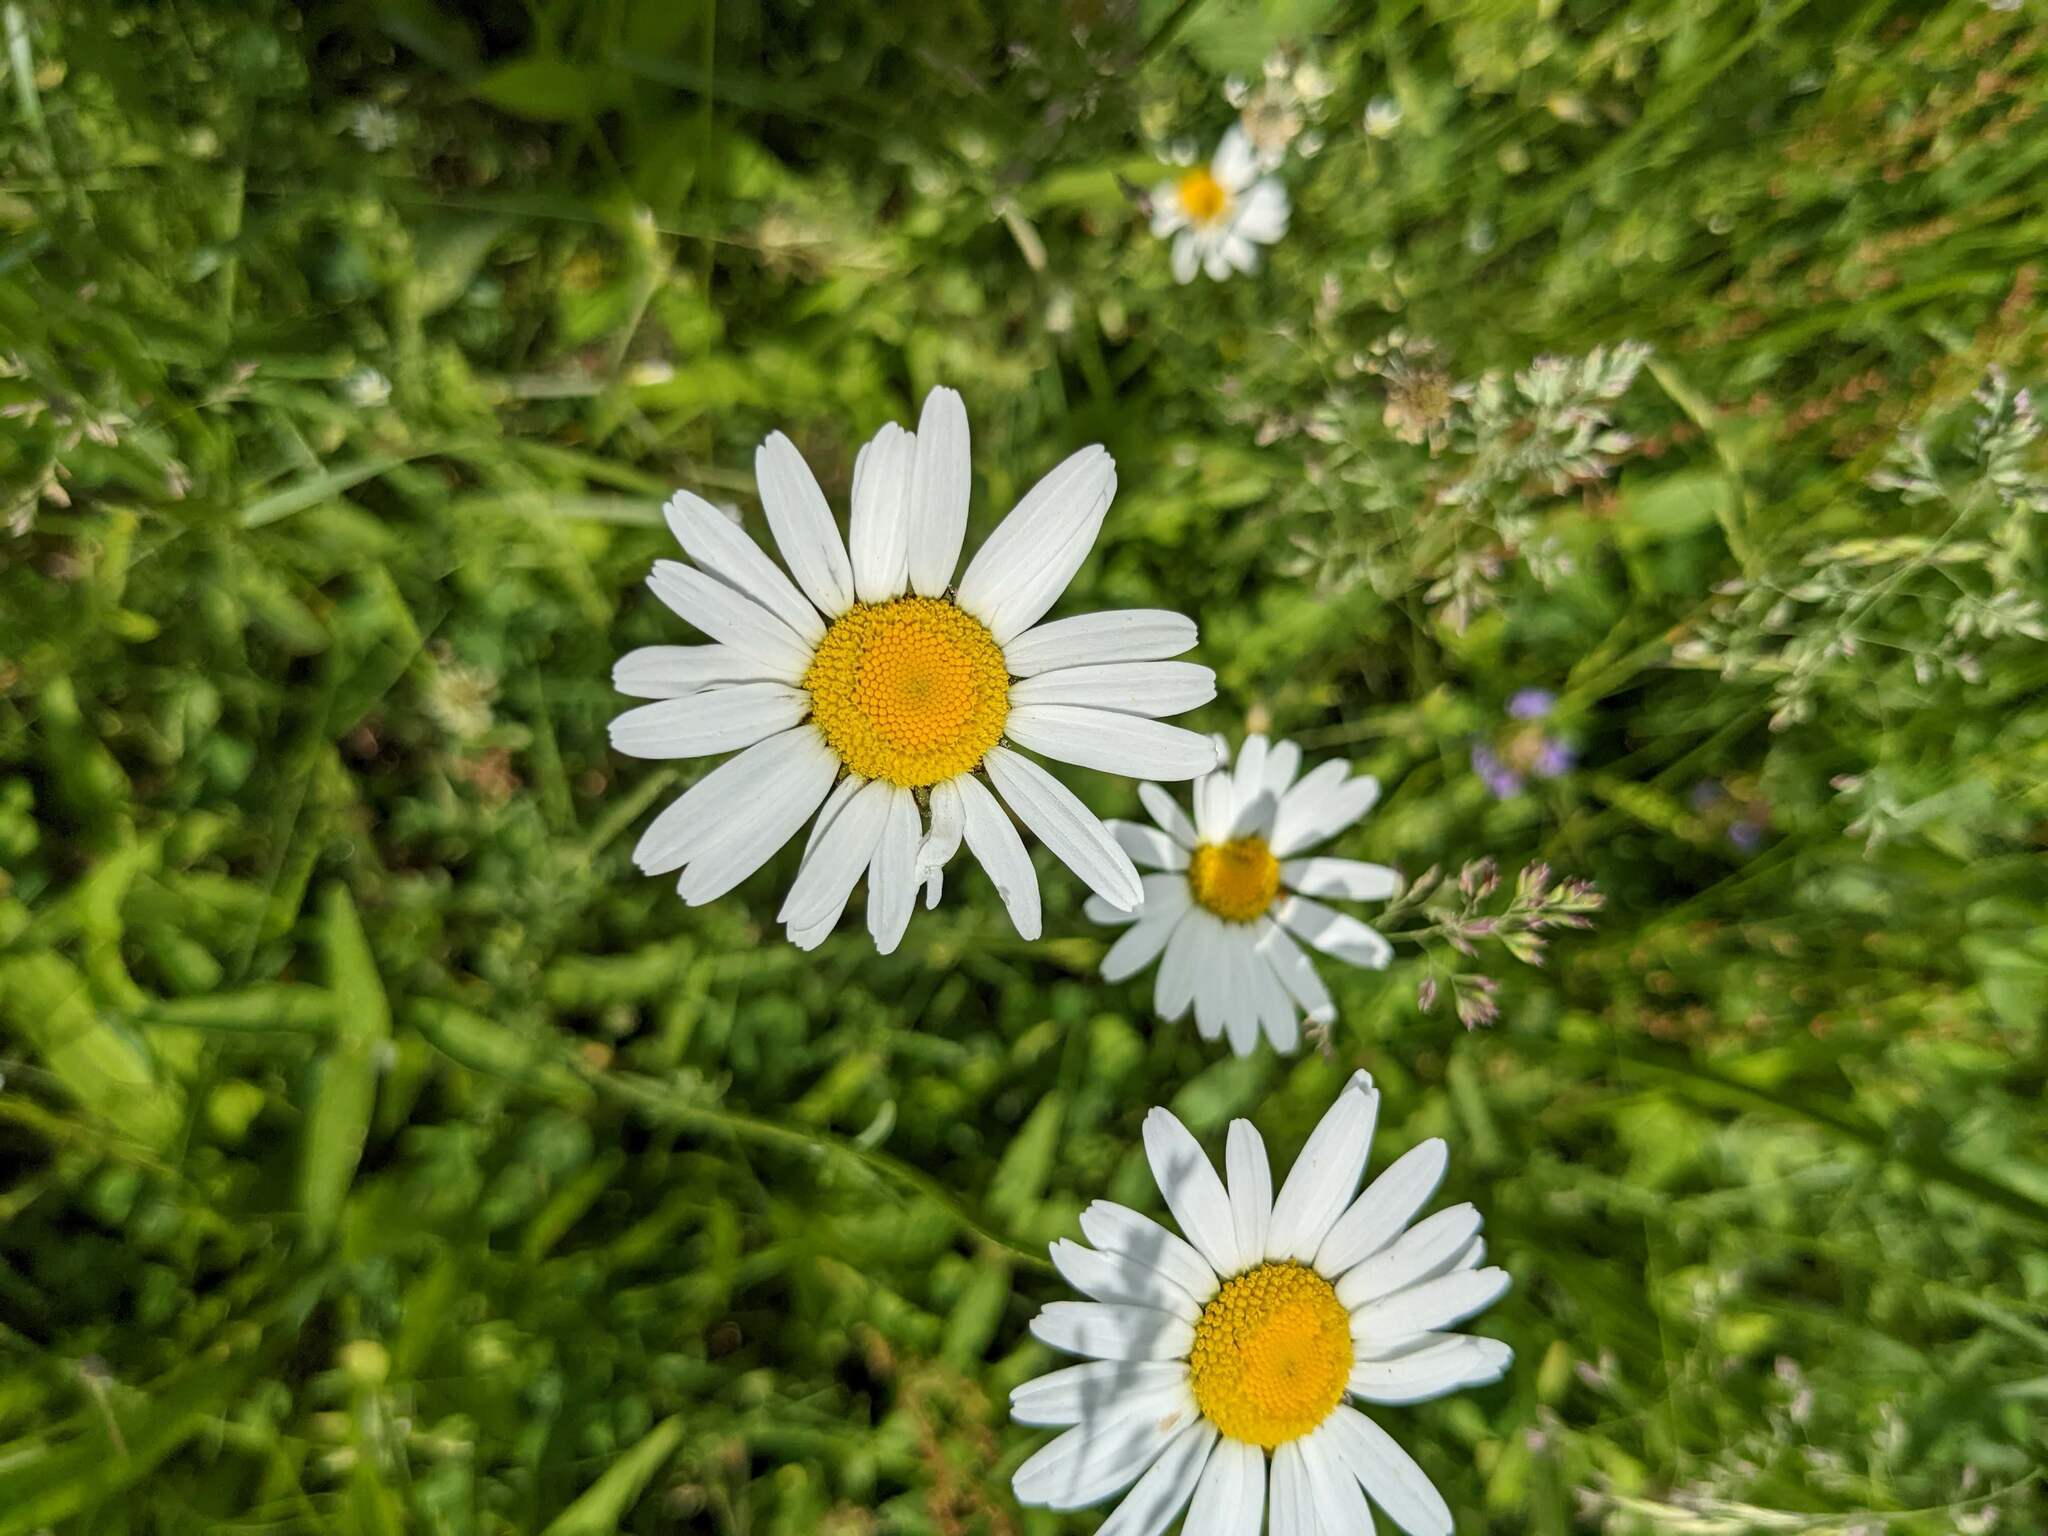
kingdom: Plantae
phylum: Tracheophyta
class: Magnoliopsida
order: Asterales
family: Asteraceae
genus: Leucanthemum
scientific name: Leucanthemum vulgare
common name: Oxeye daisy
